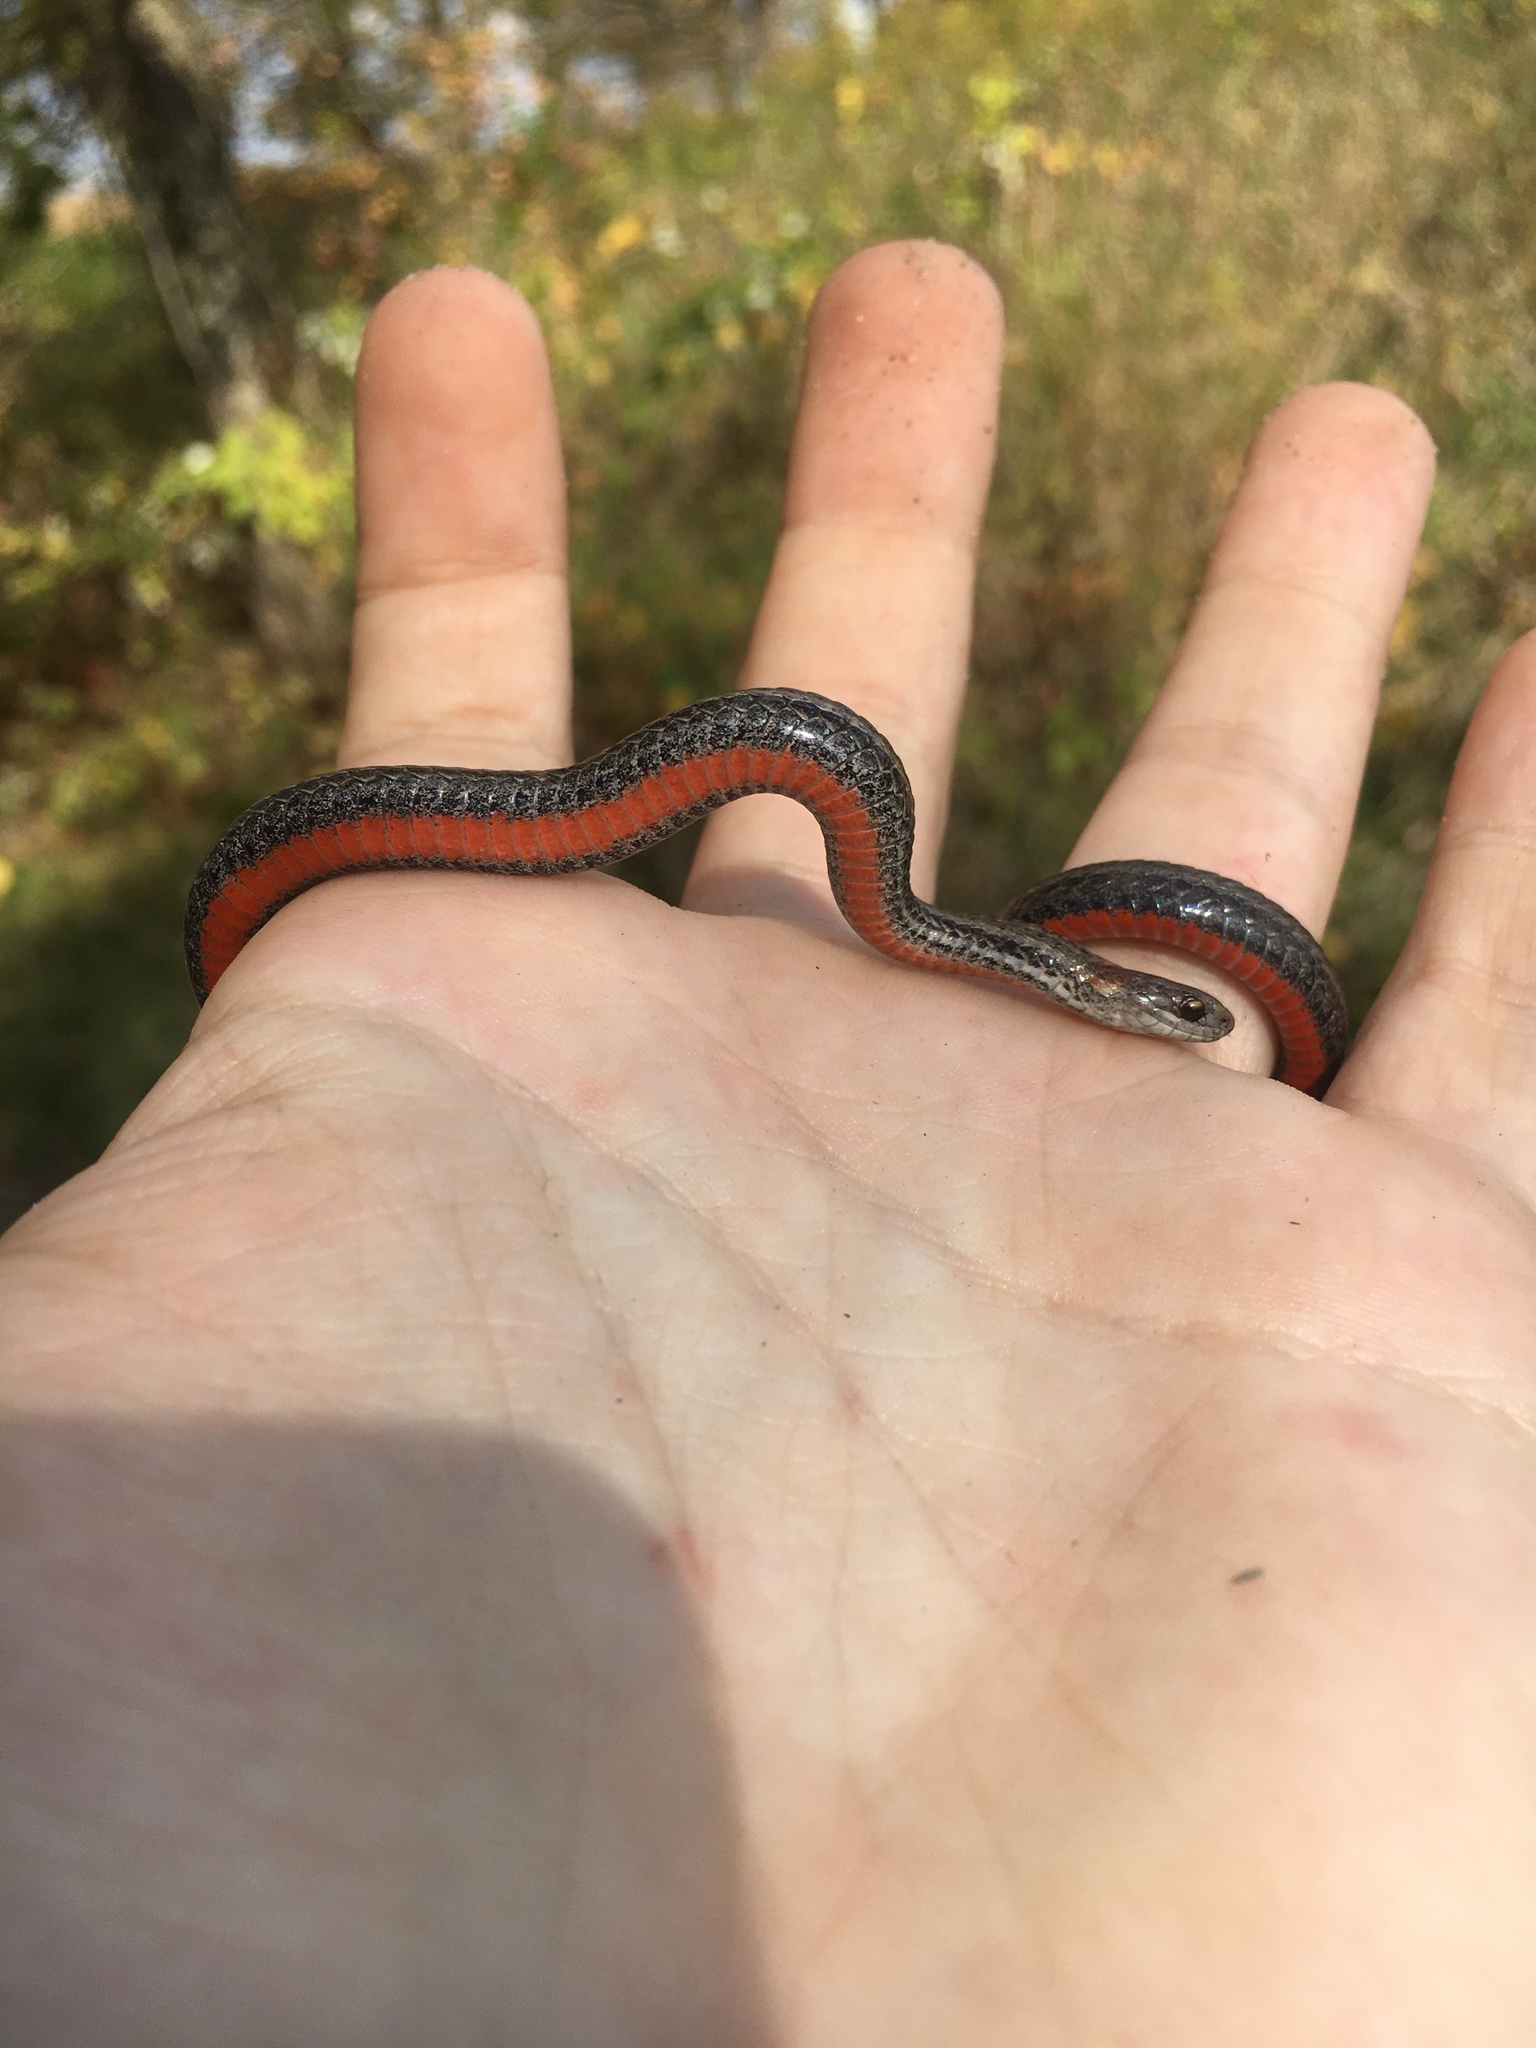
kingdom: Animalia
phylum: Chordata
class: Squamata
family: Colubridae
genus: Storeria
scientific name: Storeria occipitomaculata
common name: Redbelly snake
